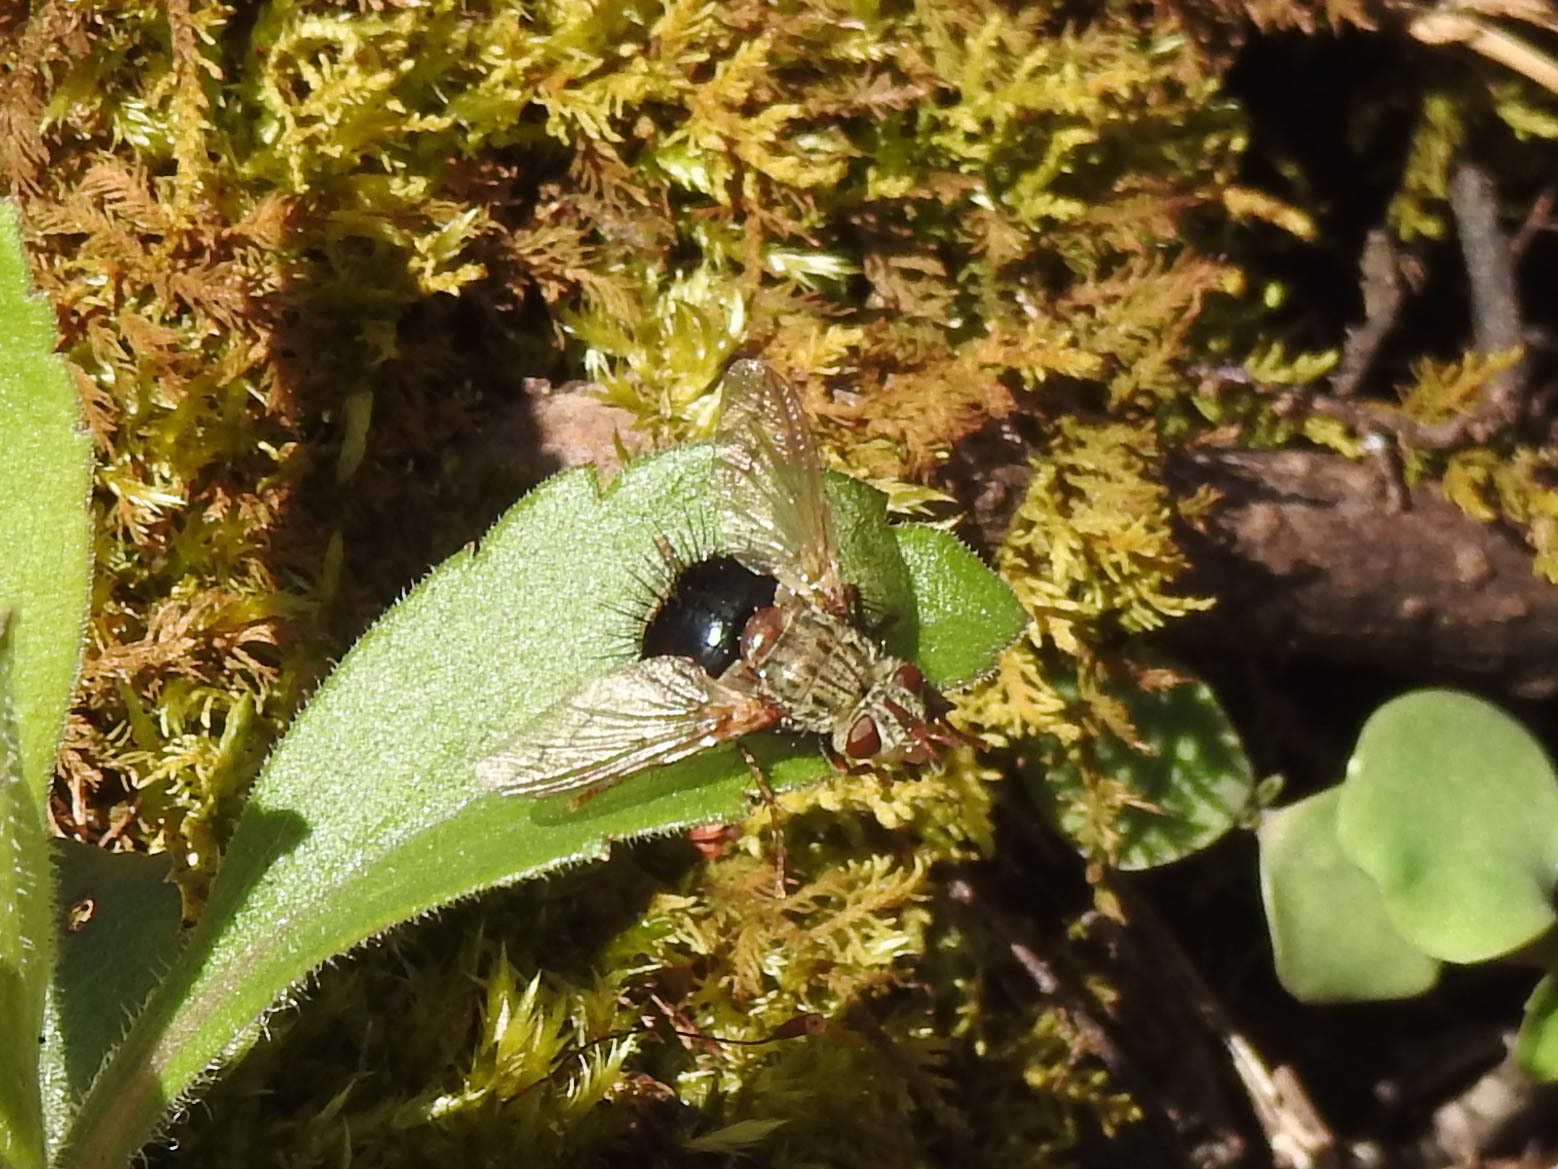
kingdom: Animalia
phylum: Arthropoda
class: Insecta
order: Diptera
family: Tachinidae
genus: Epalpus
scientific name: Epalpus signifer
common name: Early tachinid fly
